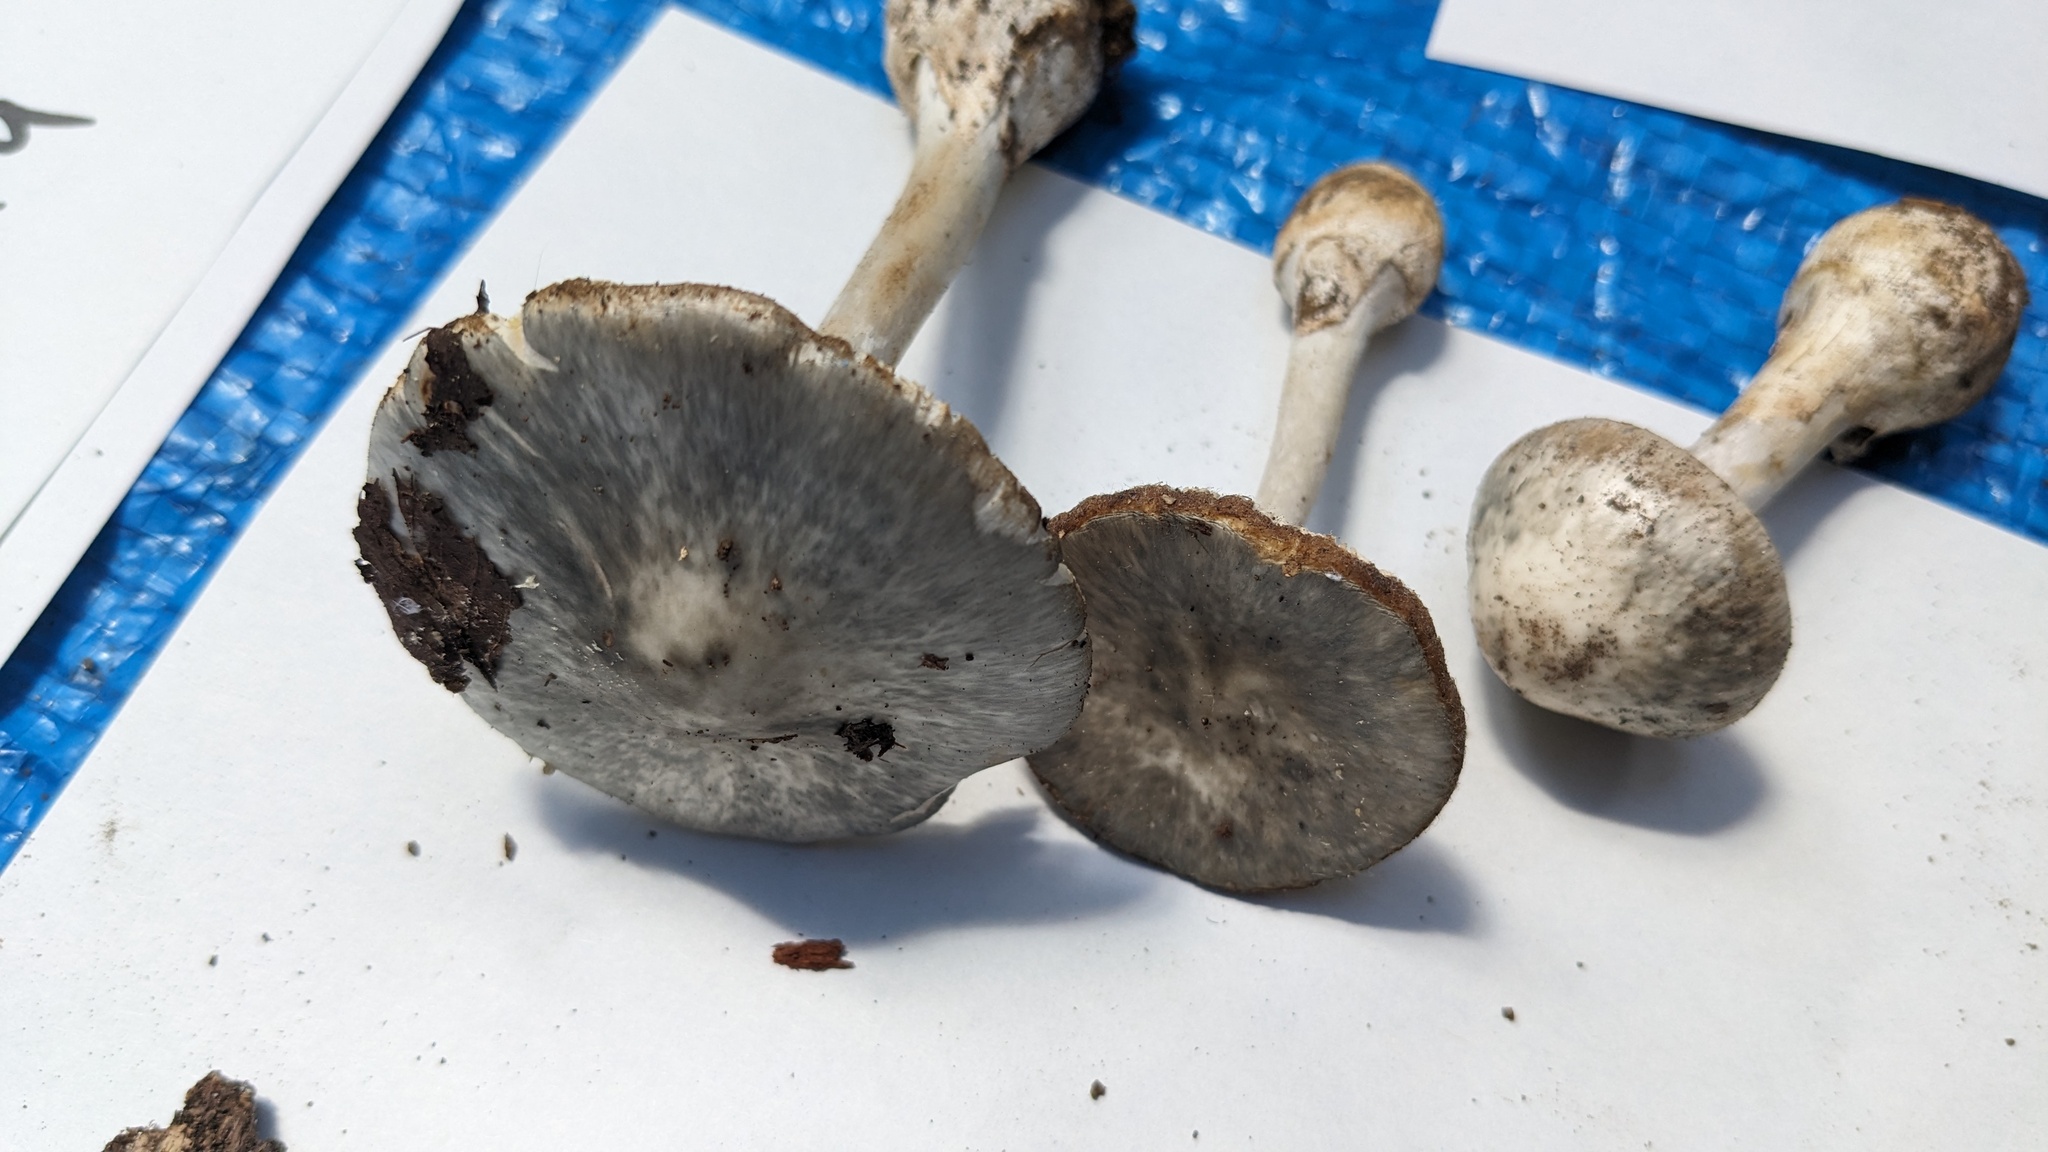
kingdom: Fungi
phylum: Basidiomycota
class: Agaricomycetes
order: Agaricales
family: Amanitaceae
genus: Amanita
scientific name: Amanita griseoturcosa
